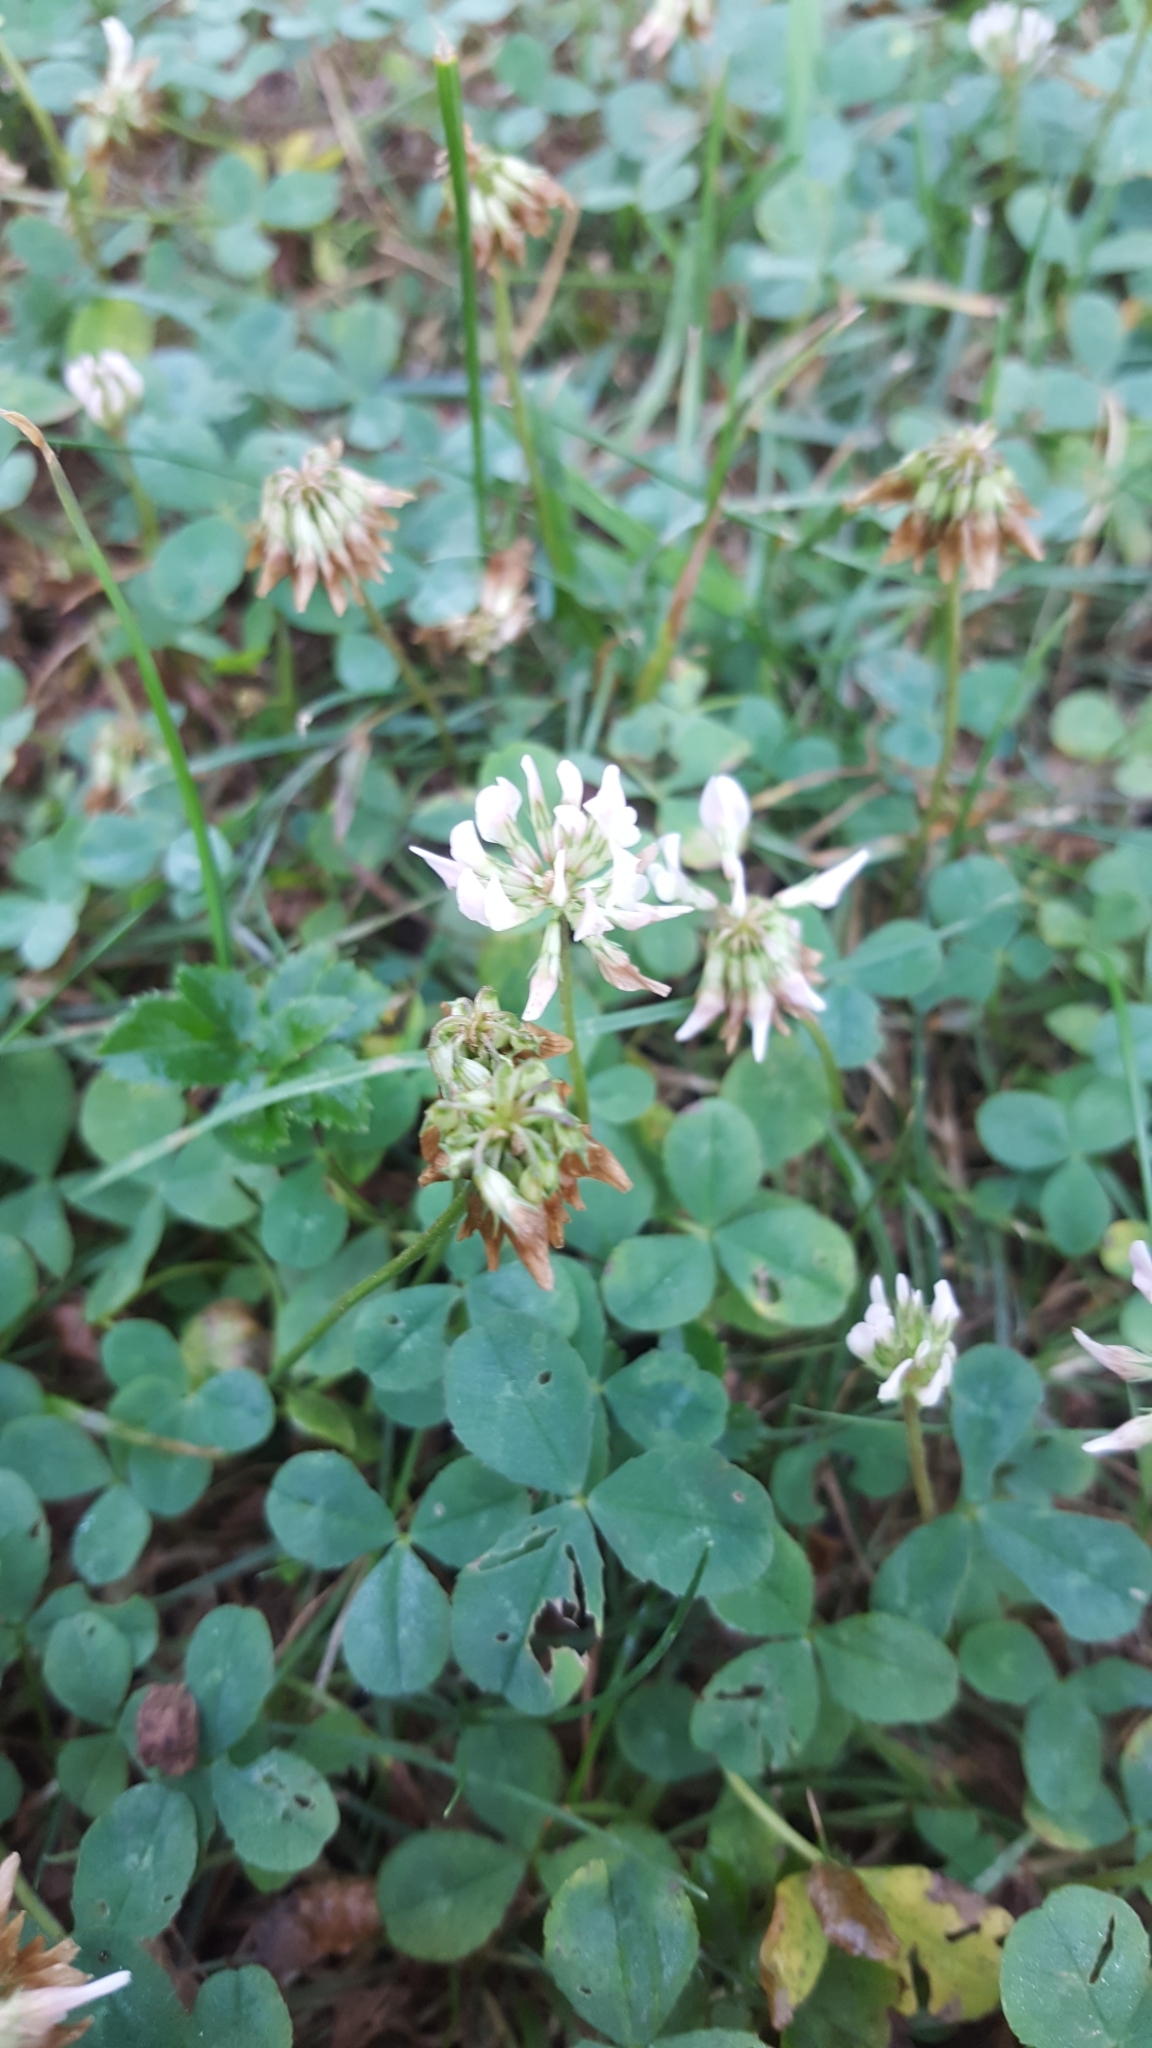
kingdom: Plantae
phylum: Tracheophyta
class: Magnoliopsida
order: Fabales
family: Fabaceae
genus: Trifolium
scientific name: Trifolium repens
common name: White clover
